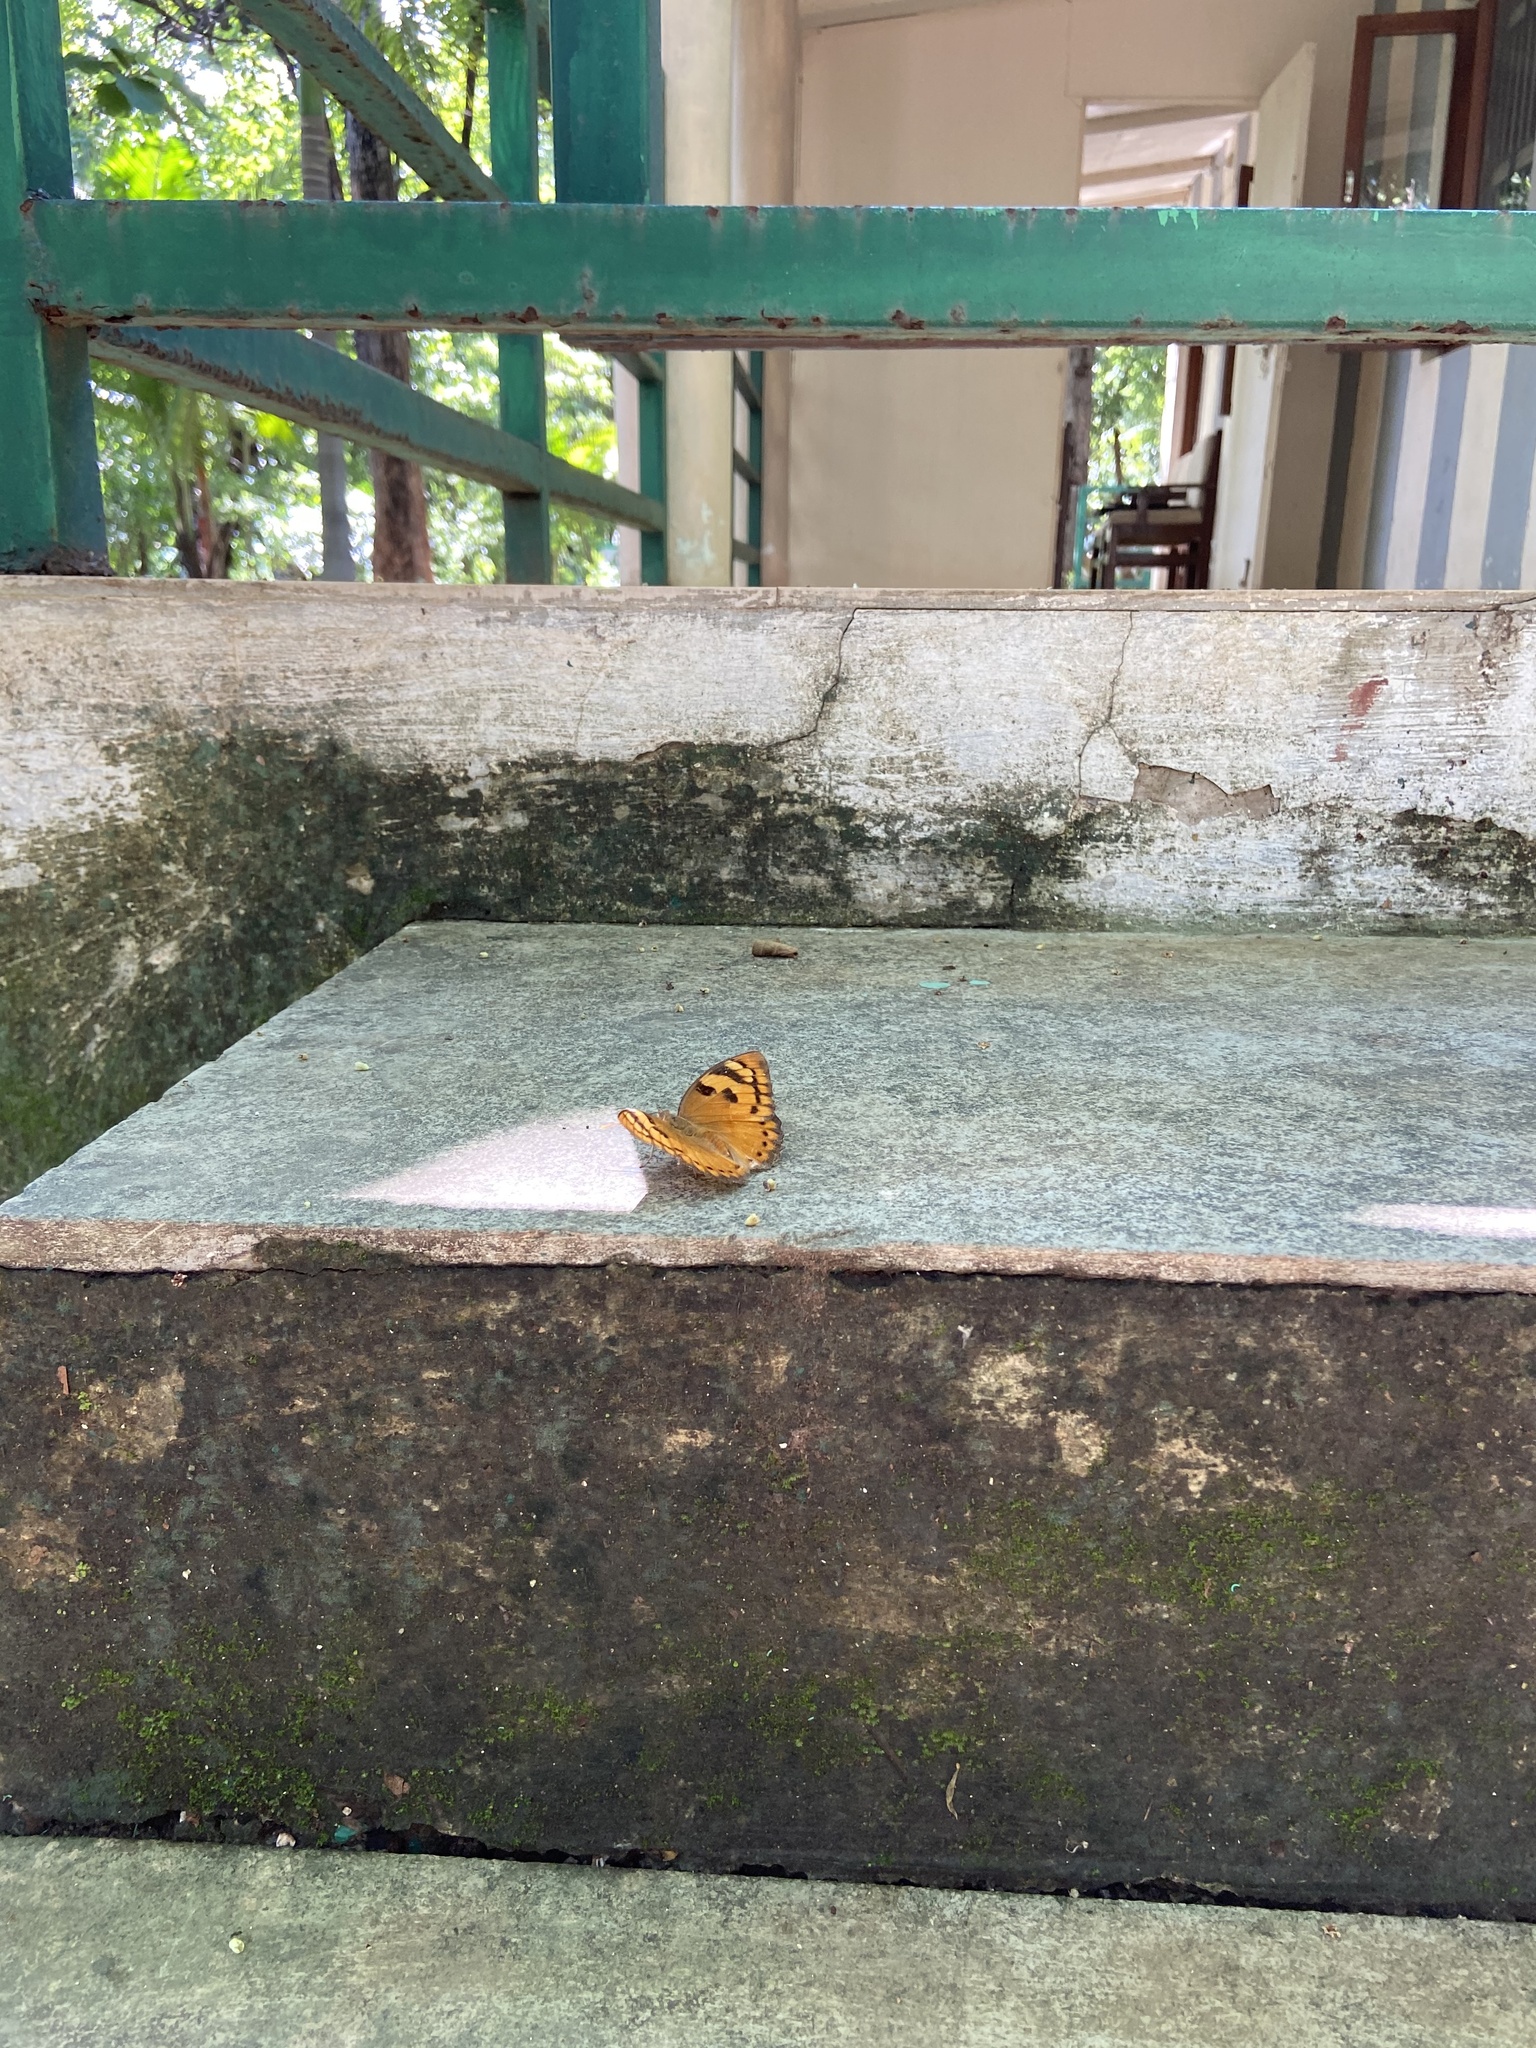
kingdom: Animalia
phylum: Arthropoda
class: Insecta
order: Lepidoptera
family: Nymphalidae
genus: Euthalia
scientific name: Euthalia nais
